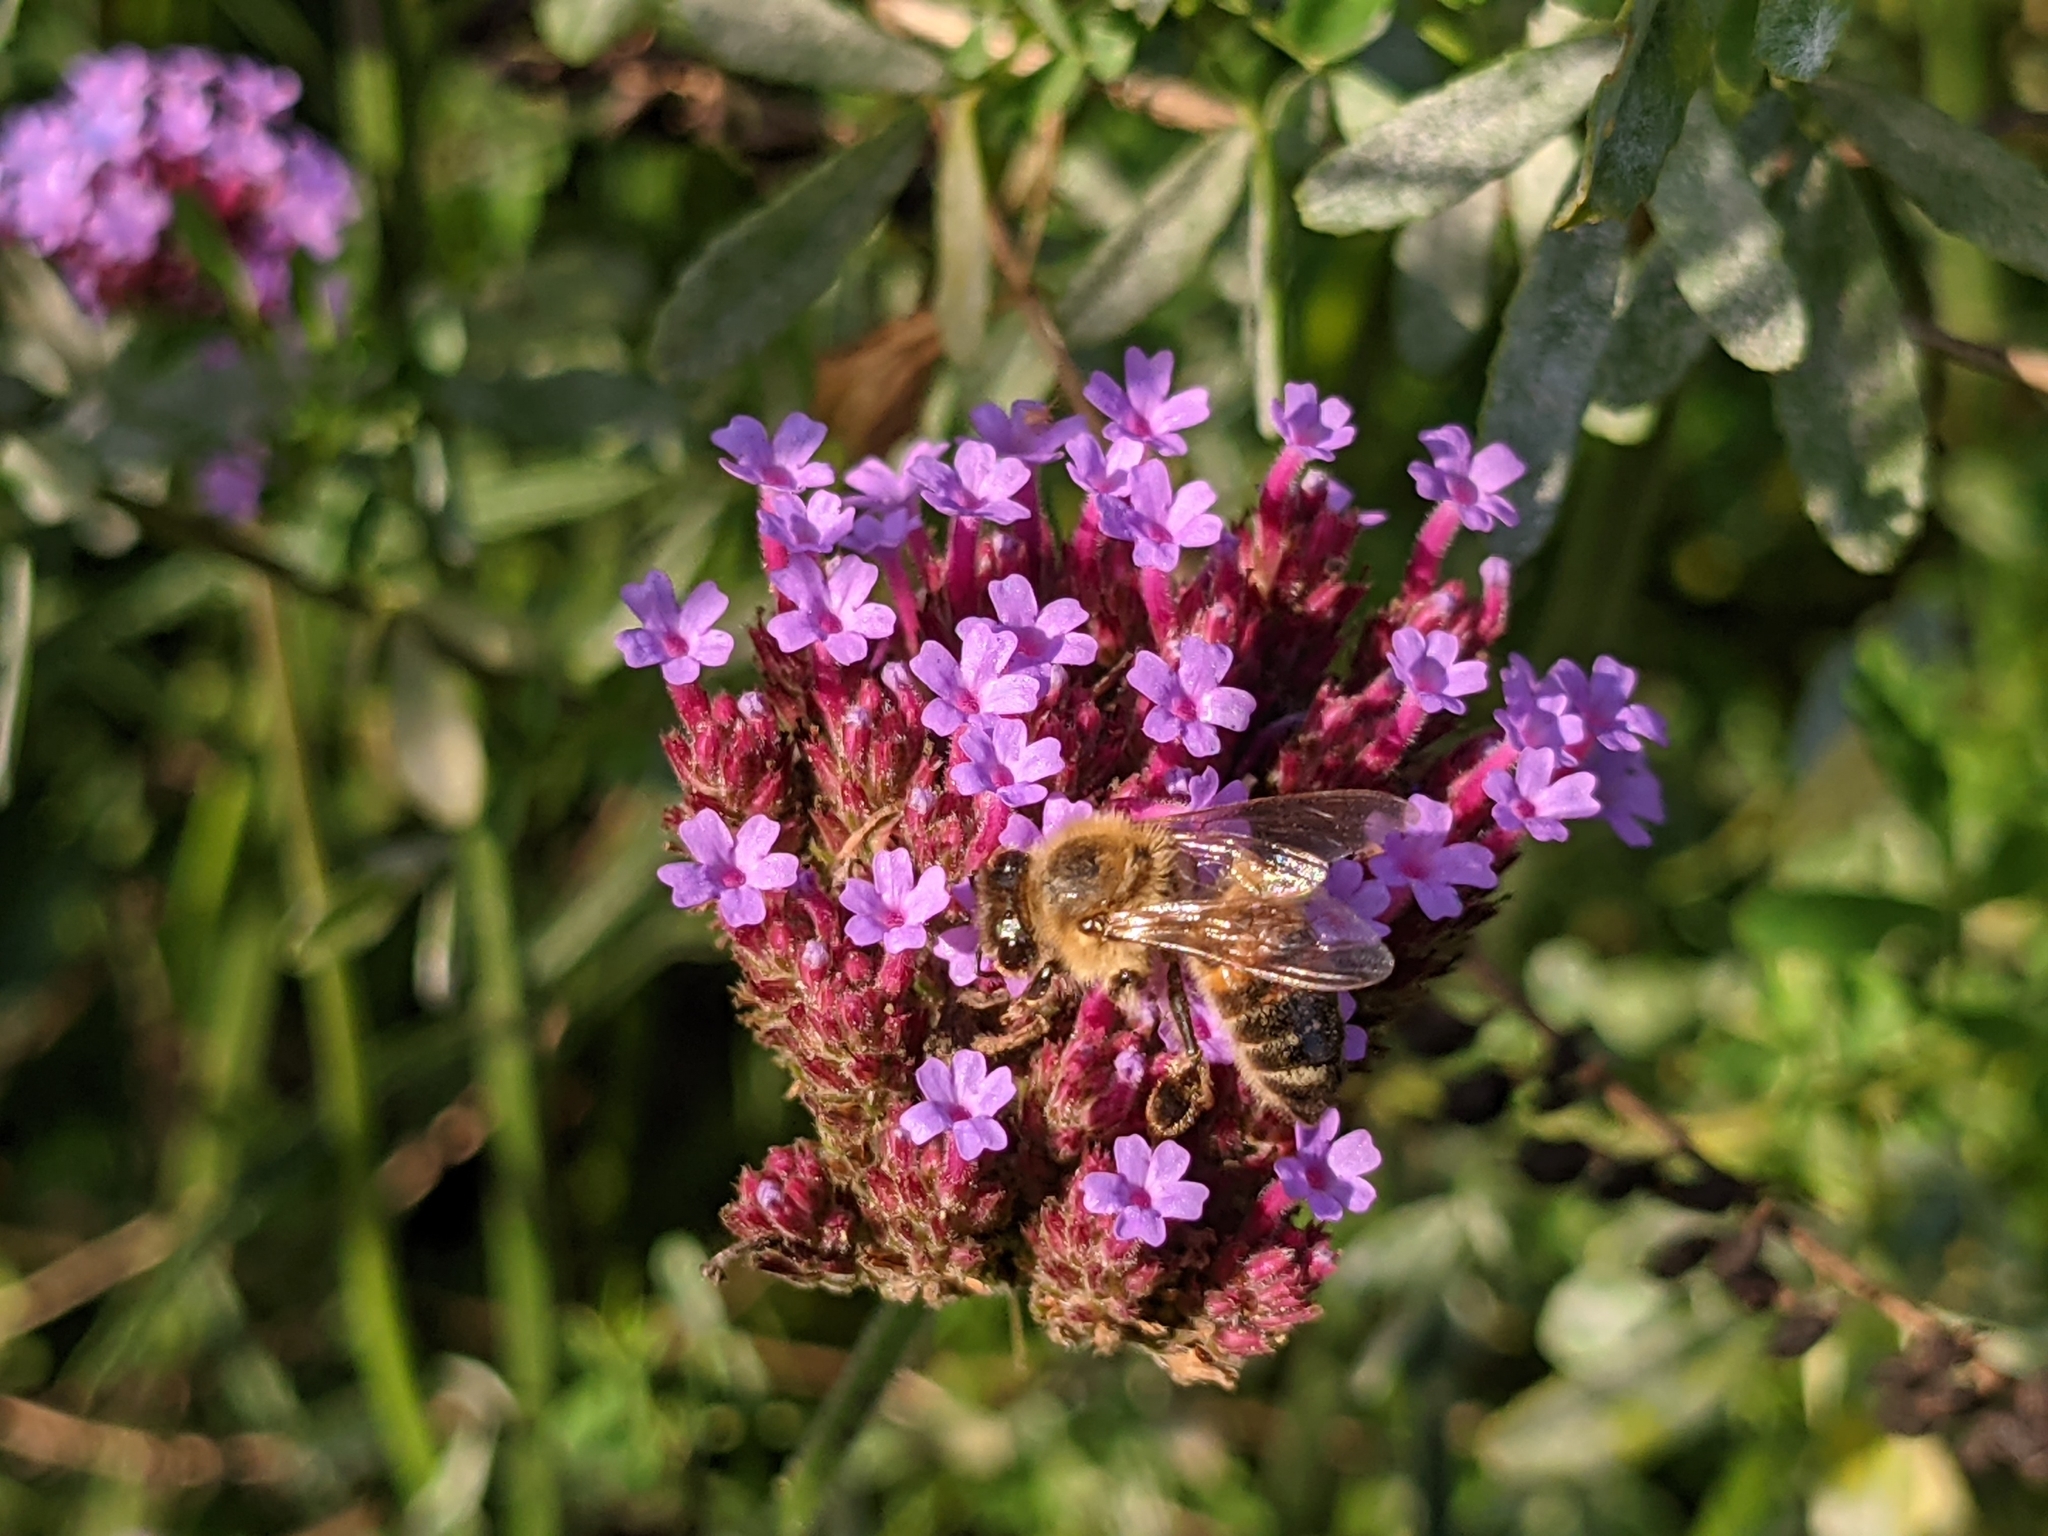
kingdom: Animalia
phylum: Arthropoda
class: Insecta
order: Hymenoptera
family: Apidae
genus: Apis
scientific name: Apis mellifera
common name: Honey bee
